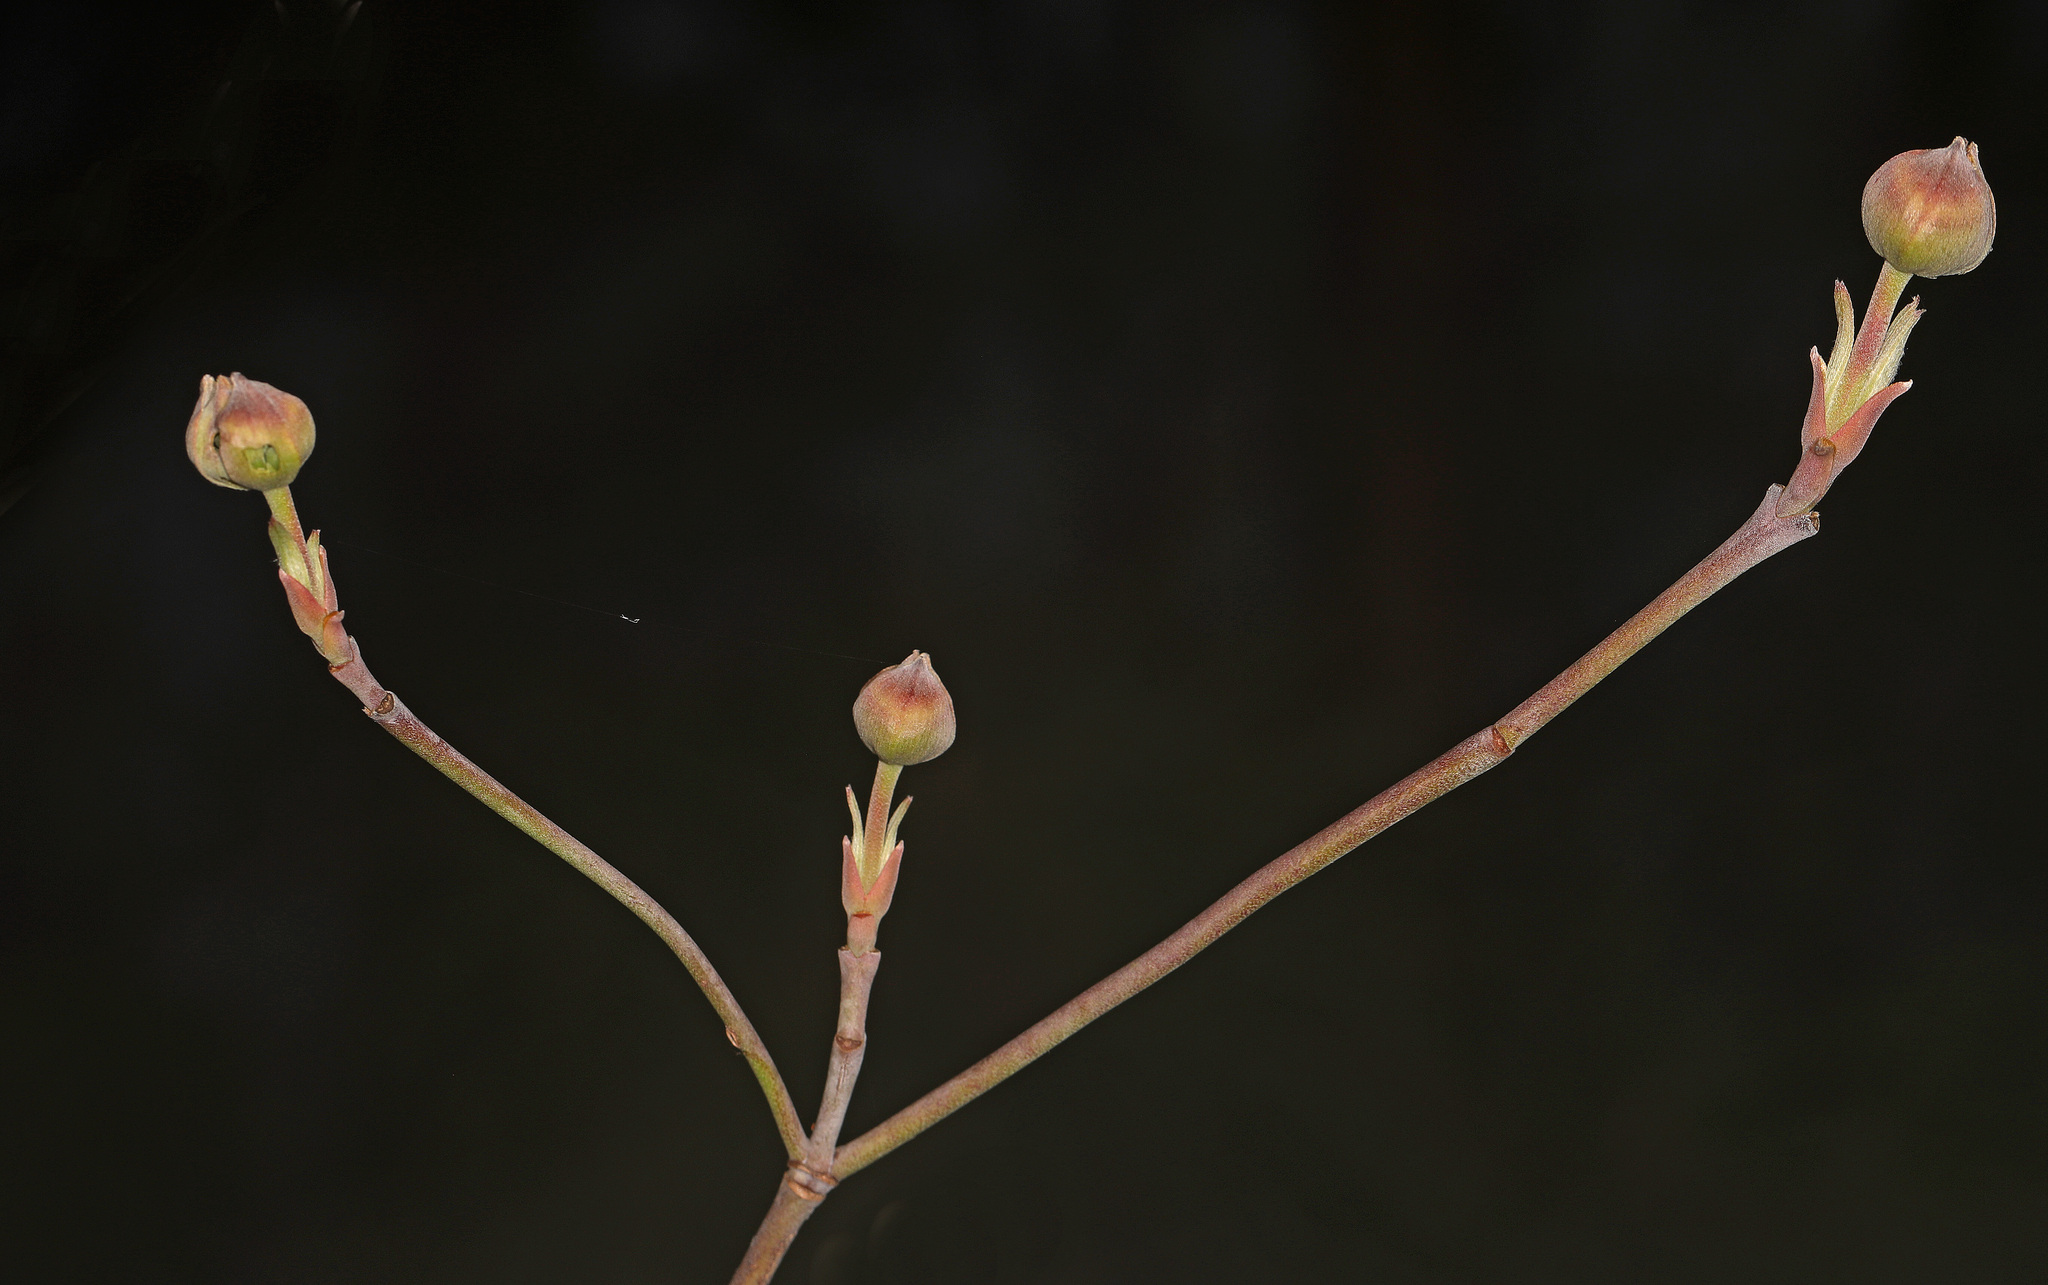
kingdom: Plantae
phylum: Tracheophyta
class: Magnoliopsida
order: Cornales
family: Cornaceae
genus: Cornus
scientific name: Cornus florida
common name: Flowering dogwood
